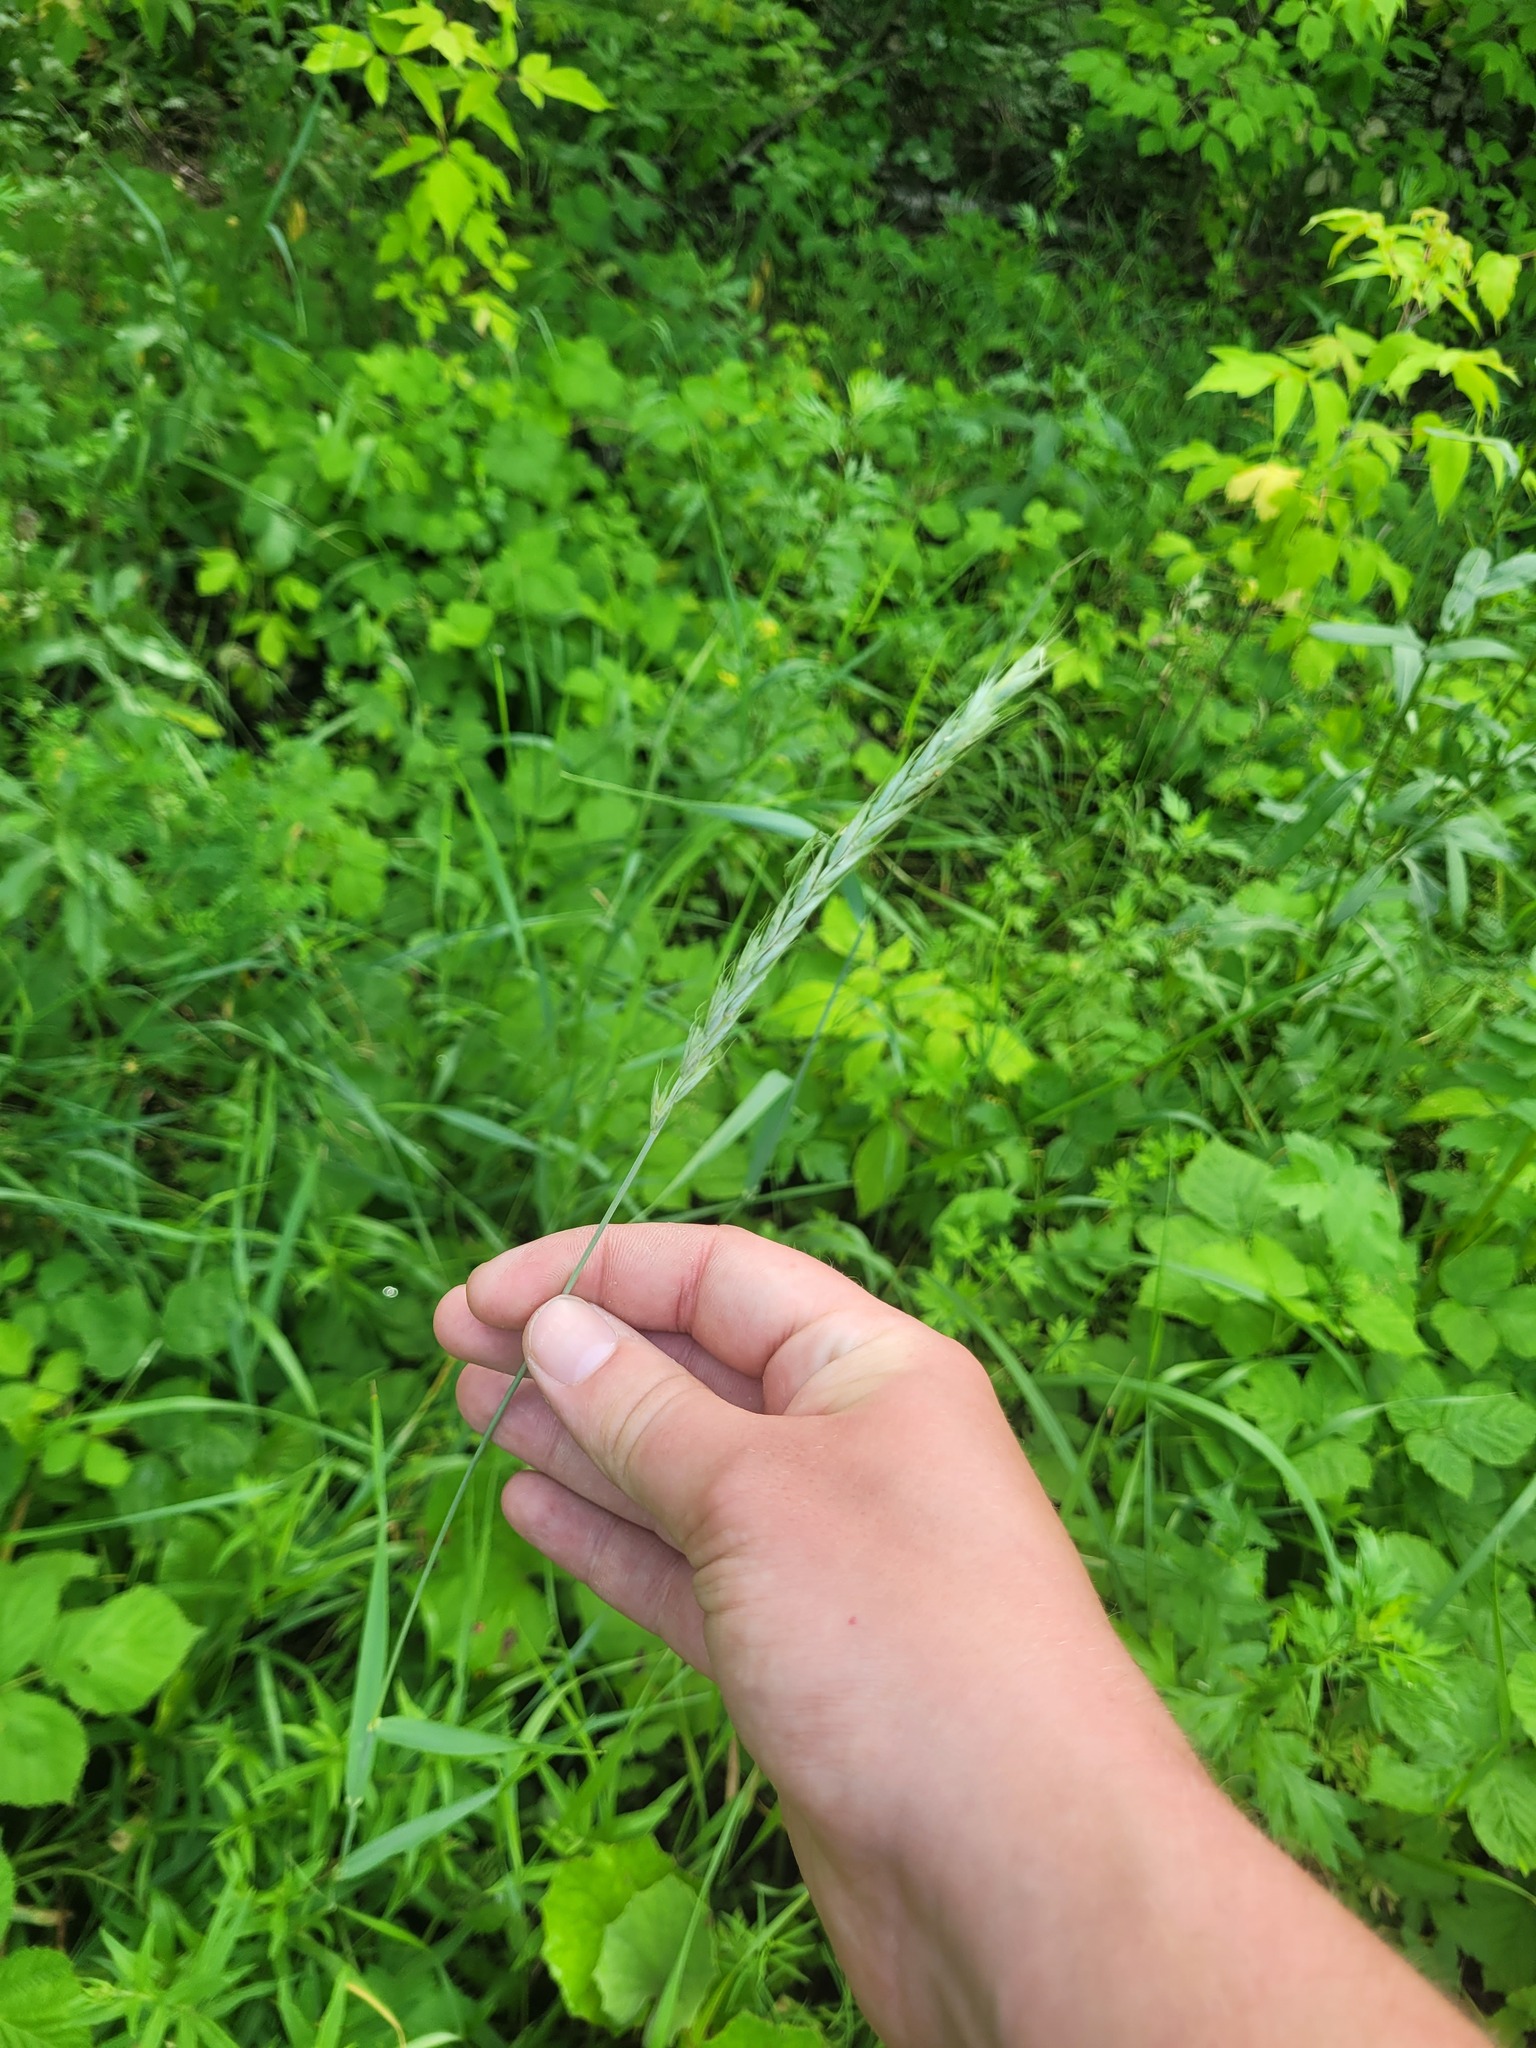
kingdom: Plantae
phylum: Tracheophyta
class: Liliopsida
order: Poales
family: Poaceae
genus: Elymus
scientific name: Elymus repens
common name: Quackgrass
